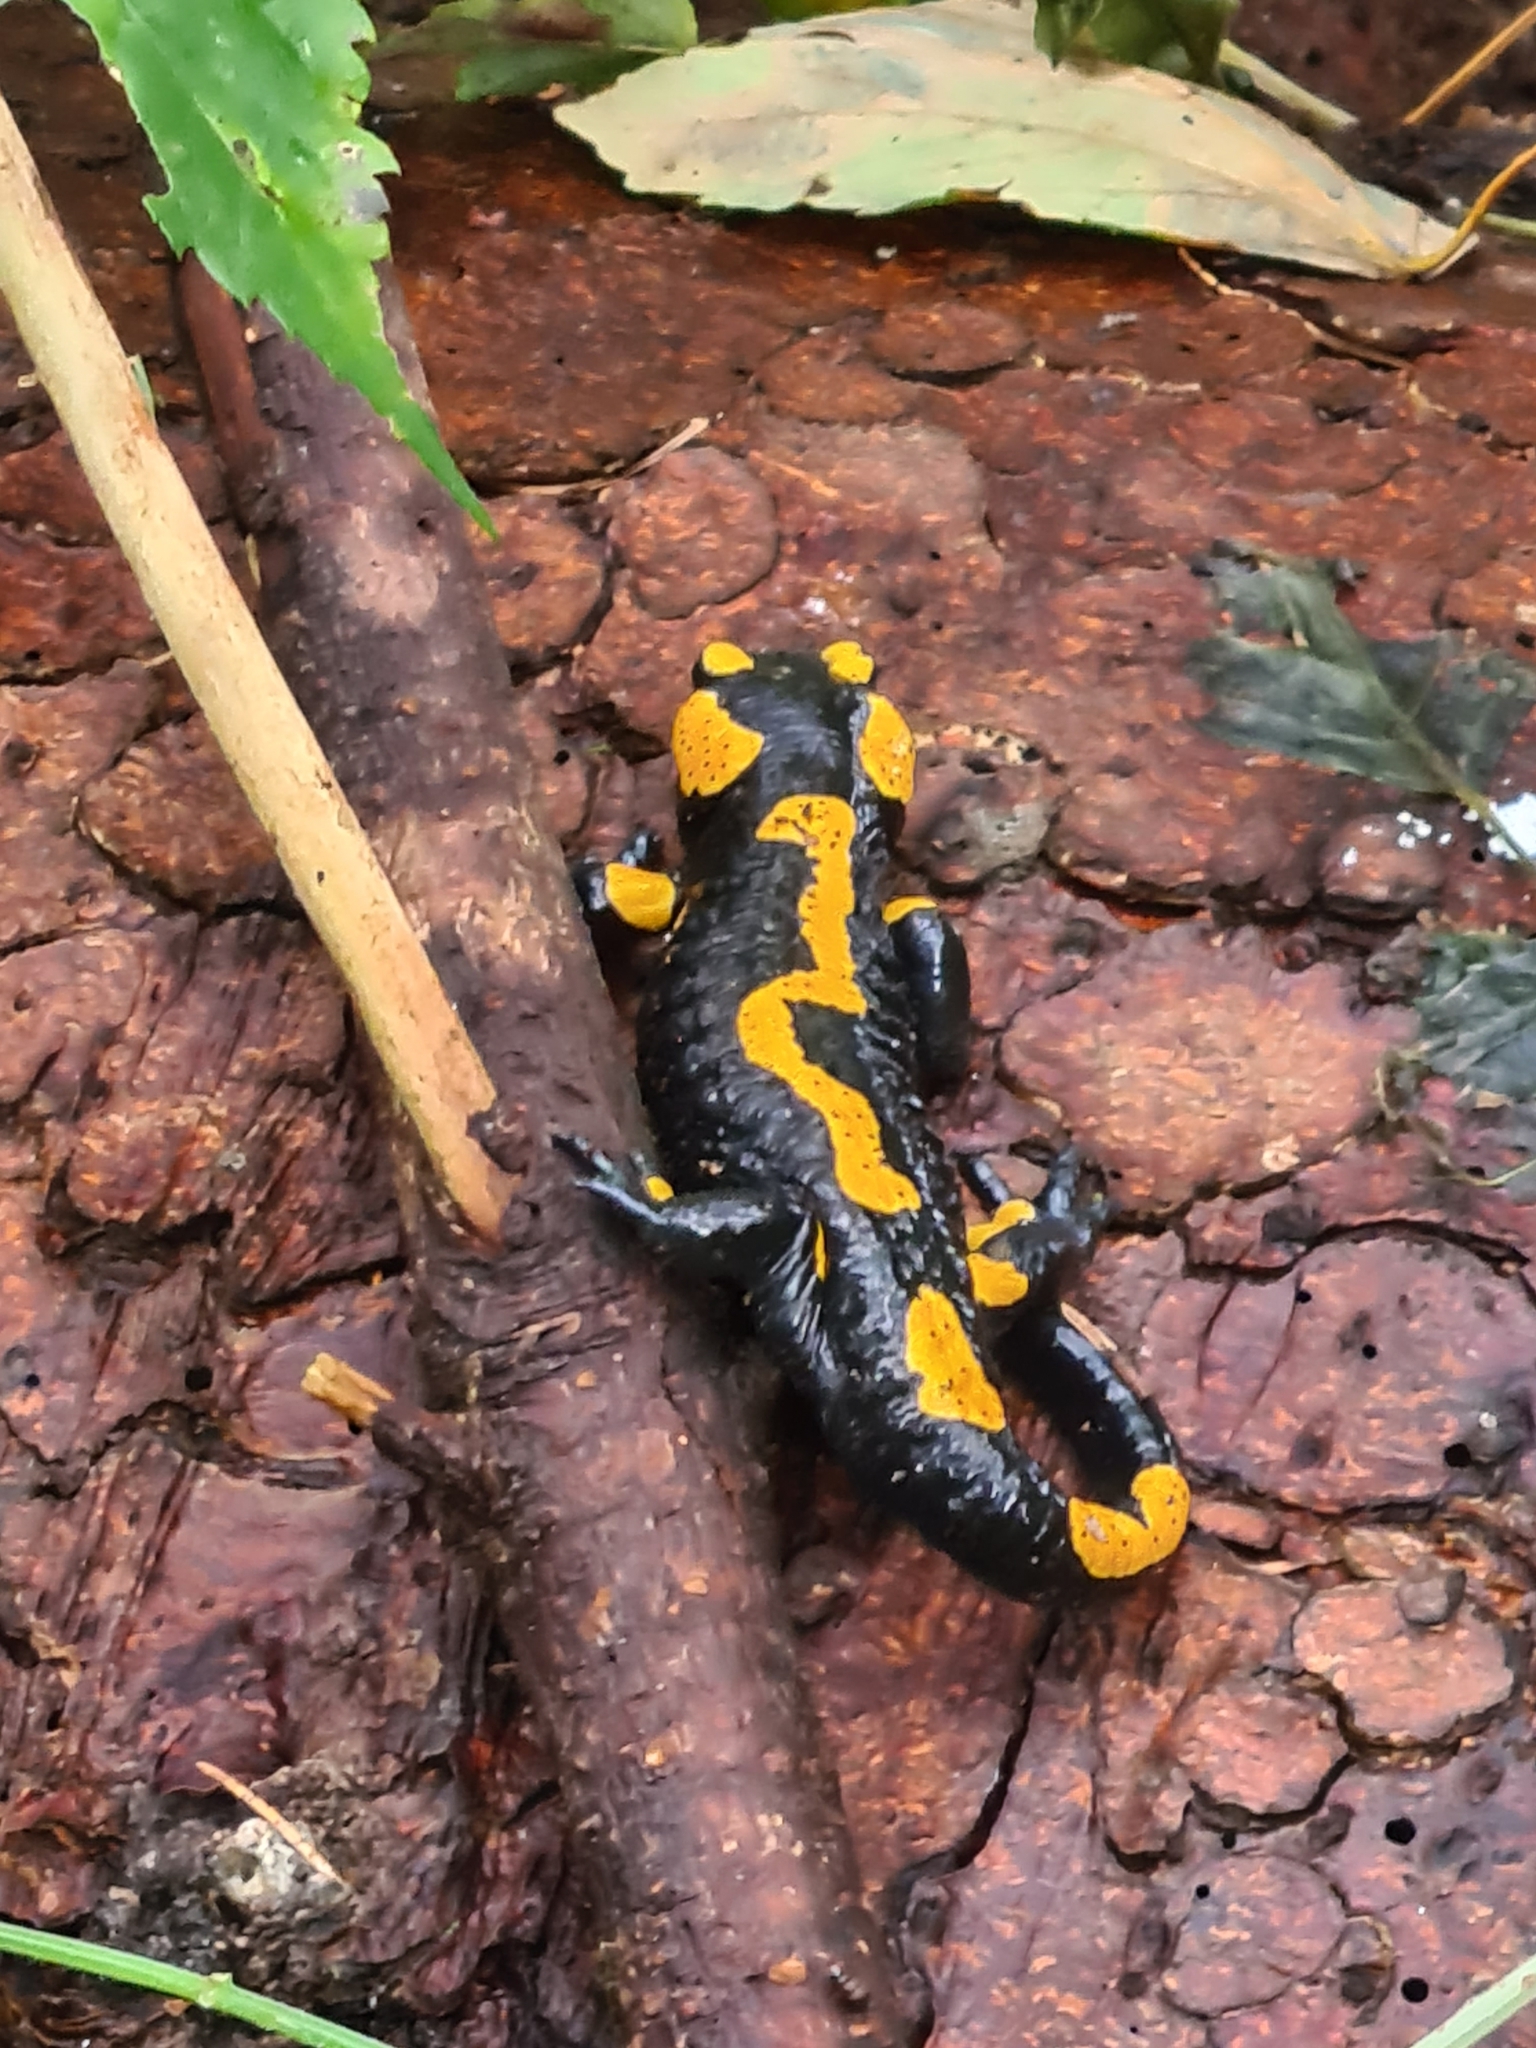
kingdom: Animalia
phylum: Chordata
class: Amphibia
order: Caudata
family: Salamandridae
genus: Salamandra
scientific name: Salamandra salamandra
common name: Fire salamander
